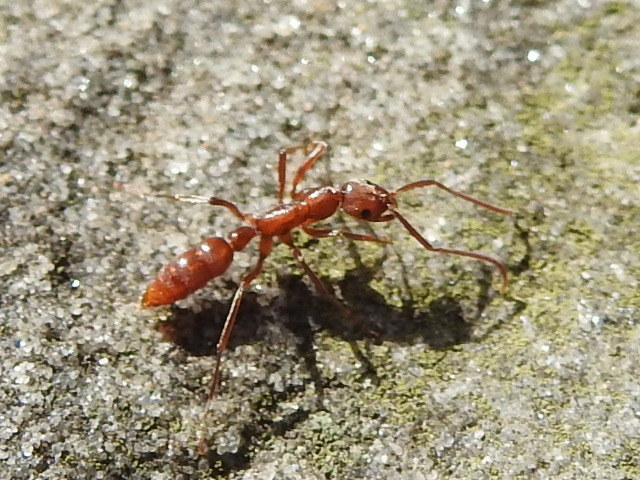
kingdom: Animalia
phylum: Arthropoda
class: Insecta
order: Hymenoptera
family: Formicidae
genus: Leptogenys
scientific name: Leptogenys elongata
